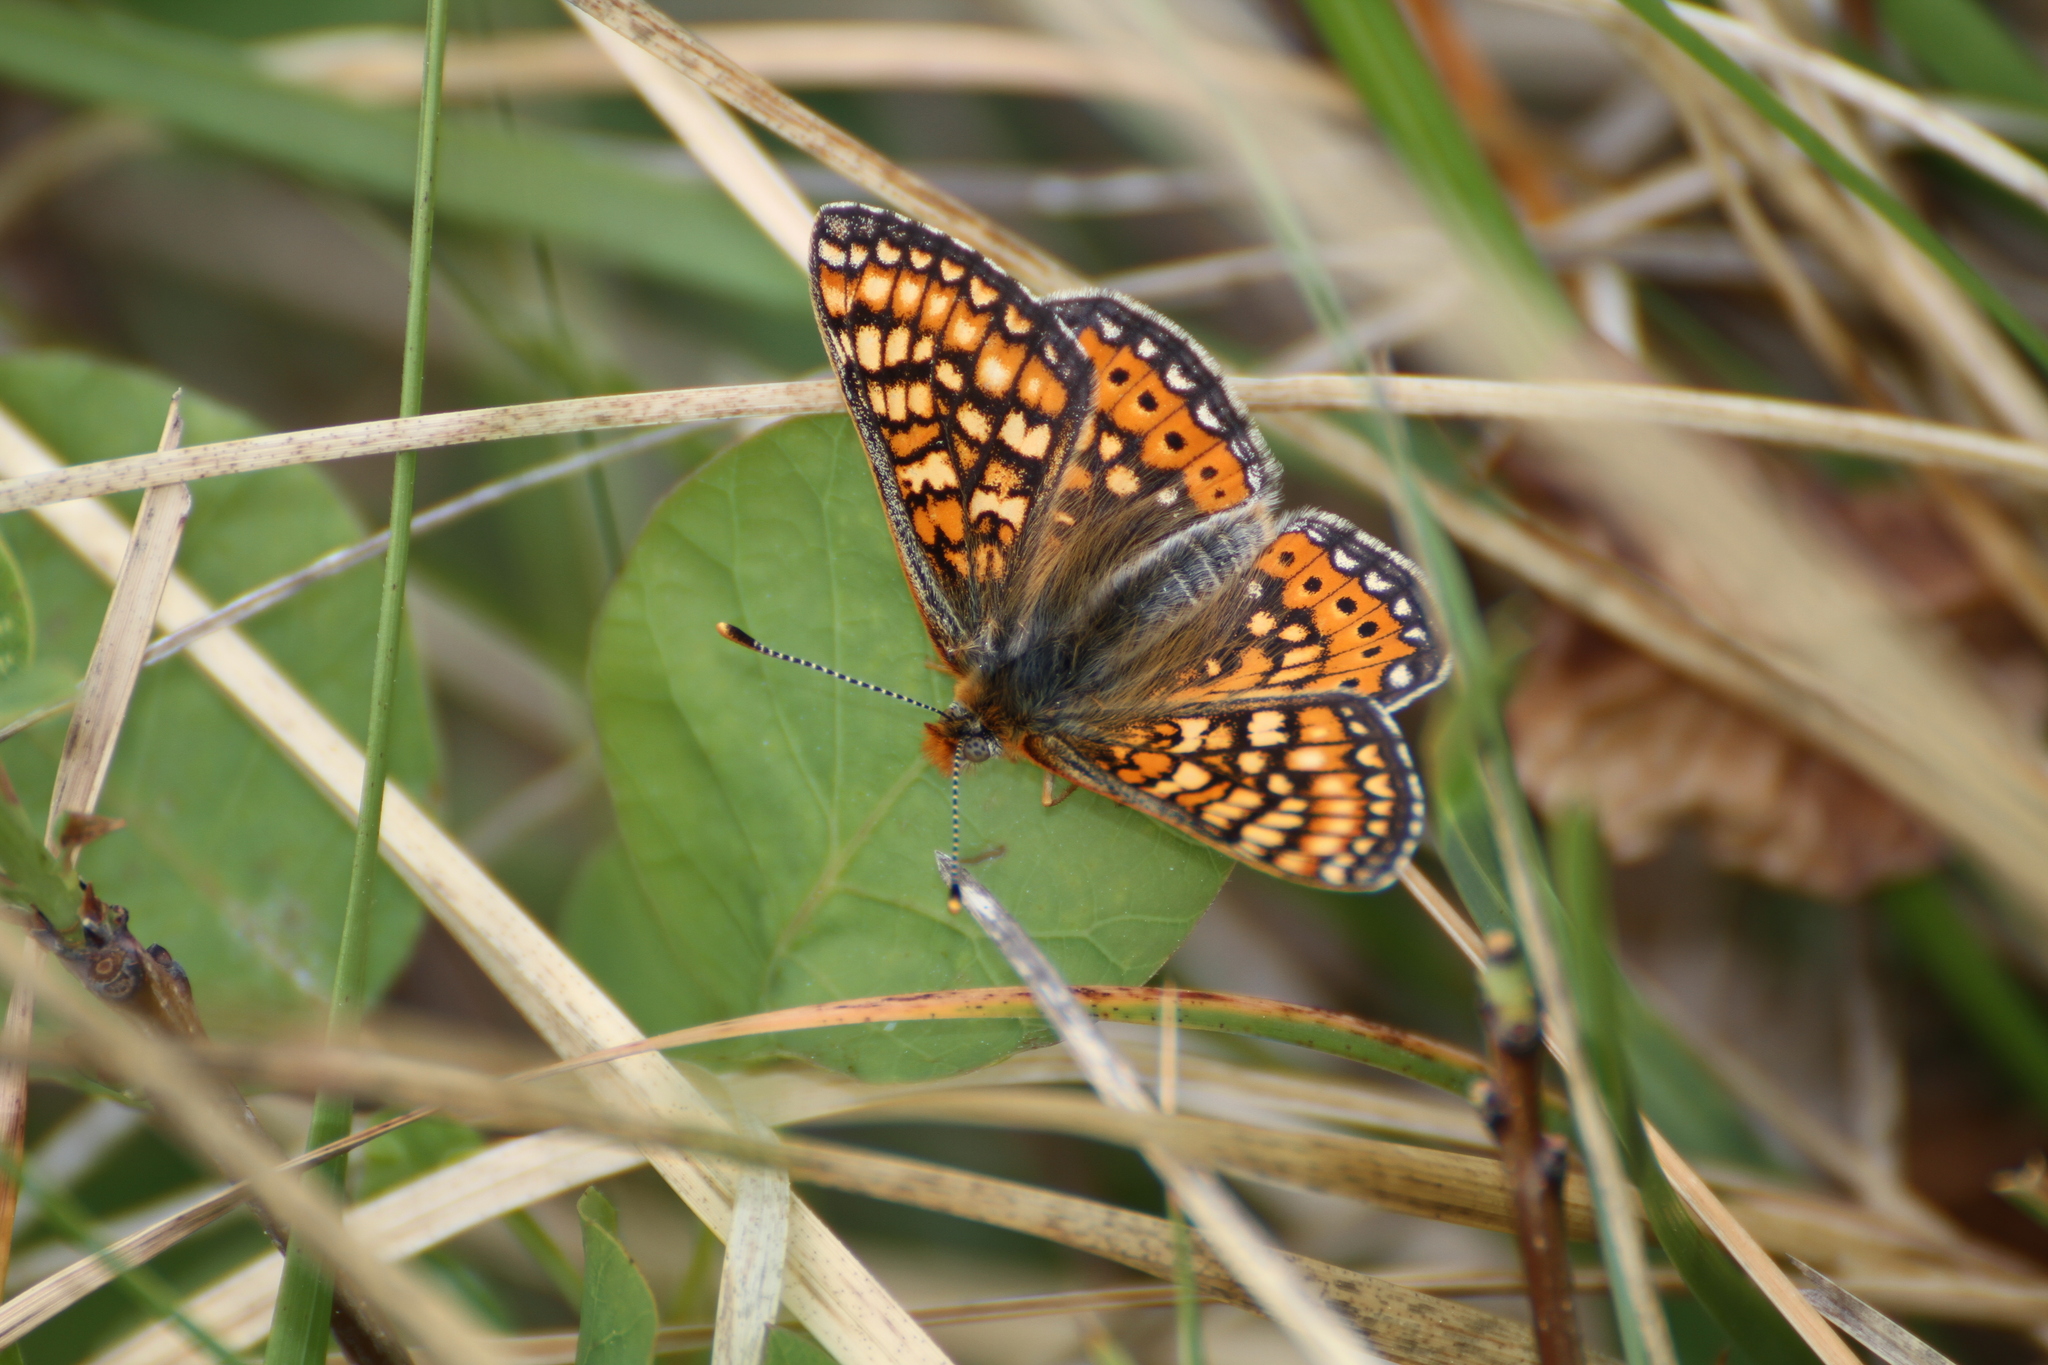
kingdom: Animalia
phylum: Arthropoda
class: Insecta
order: Lepidoptera
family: Nymphalidae
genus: Euphydryas
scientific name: Euphydryas aurinia
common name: Marsh fritillary
